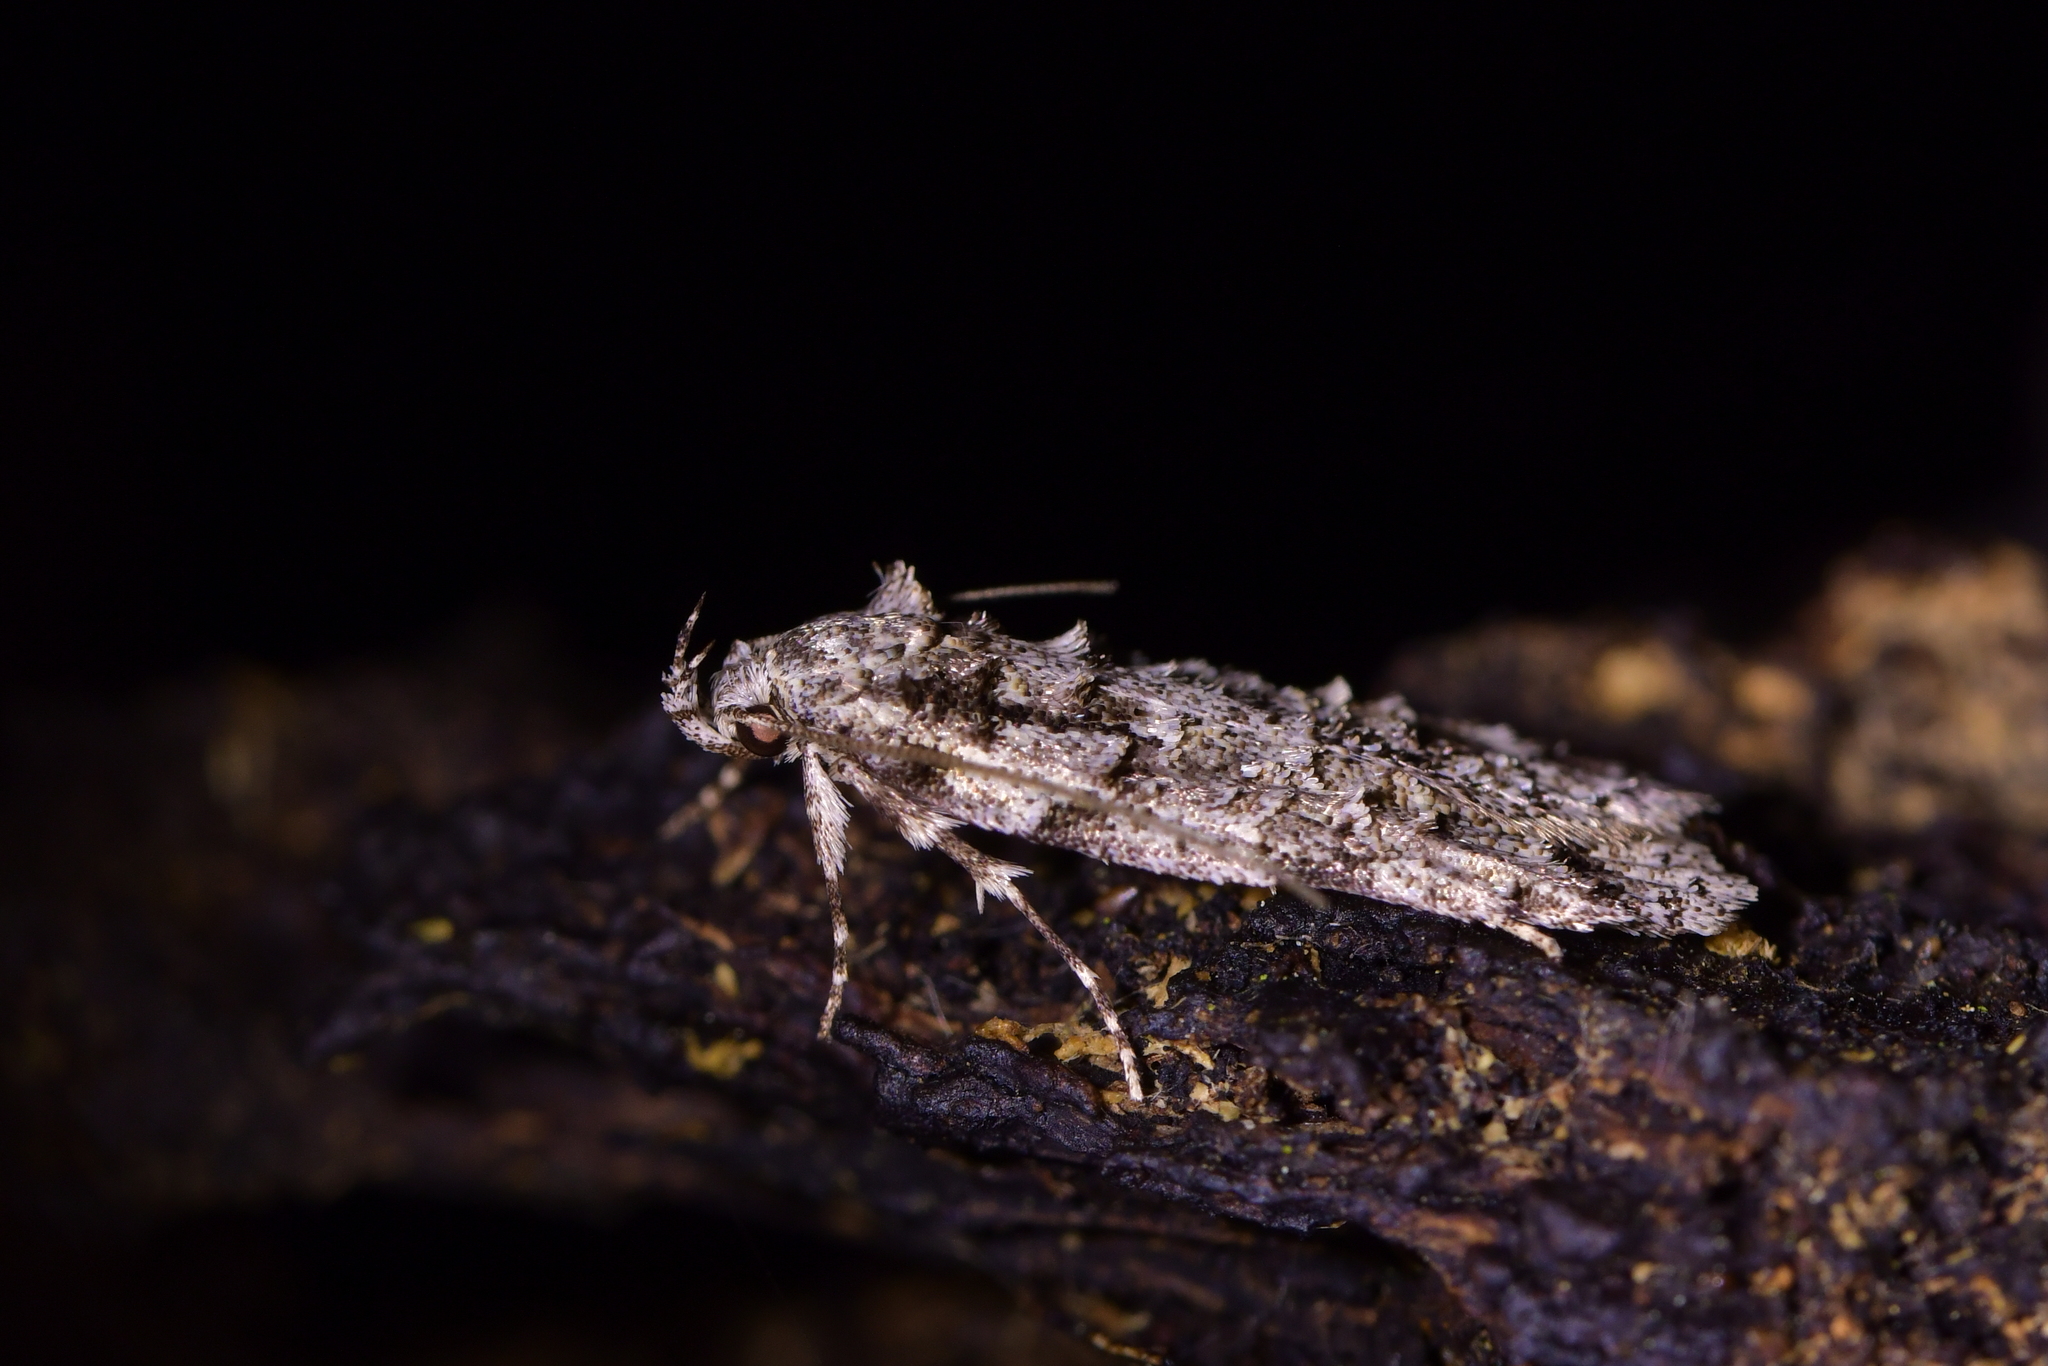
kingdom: Animalia
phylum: Arthropoda
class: Insecta
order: Lepidoptera
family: Oecophoridae
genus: Izatha
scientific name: Izatha attactella
